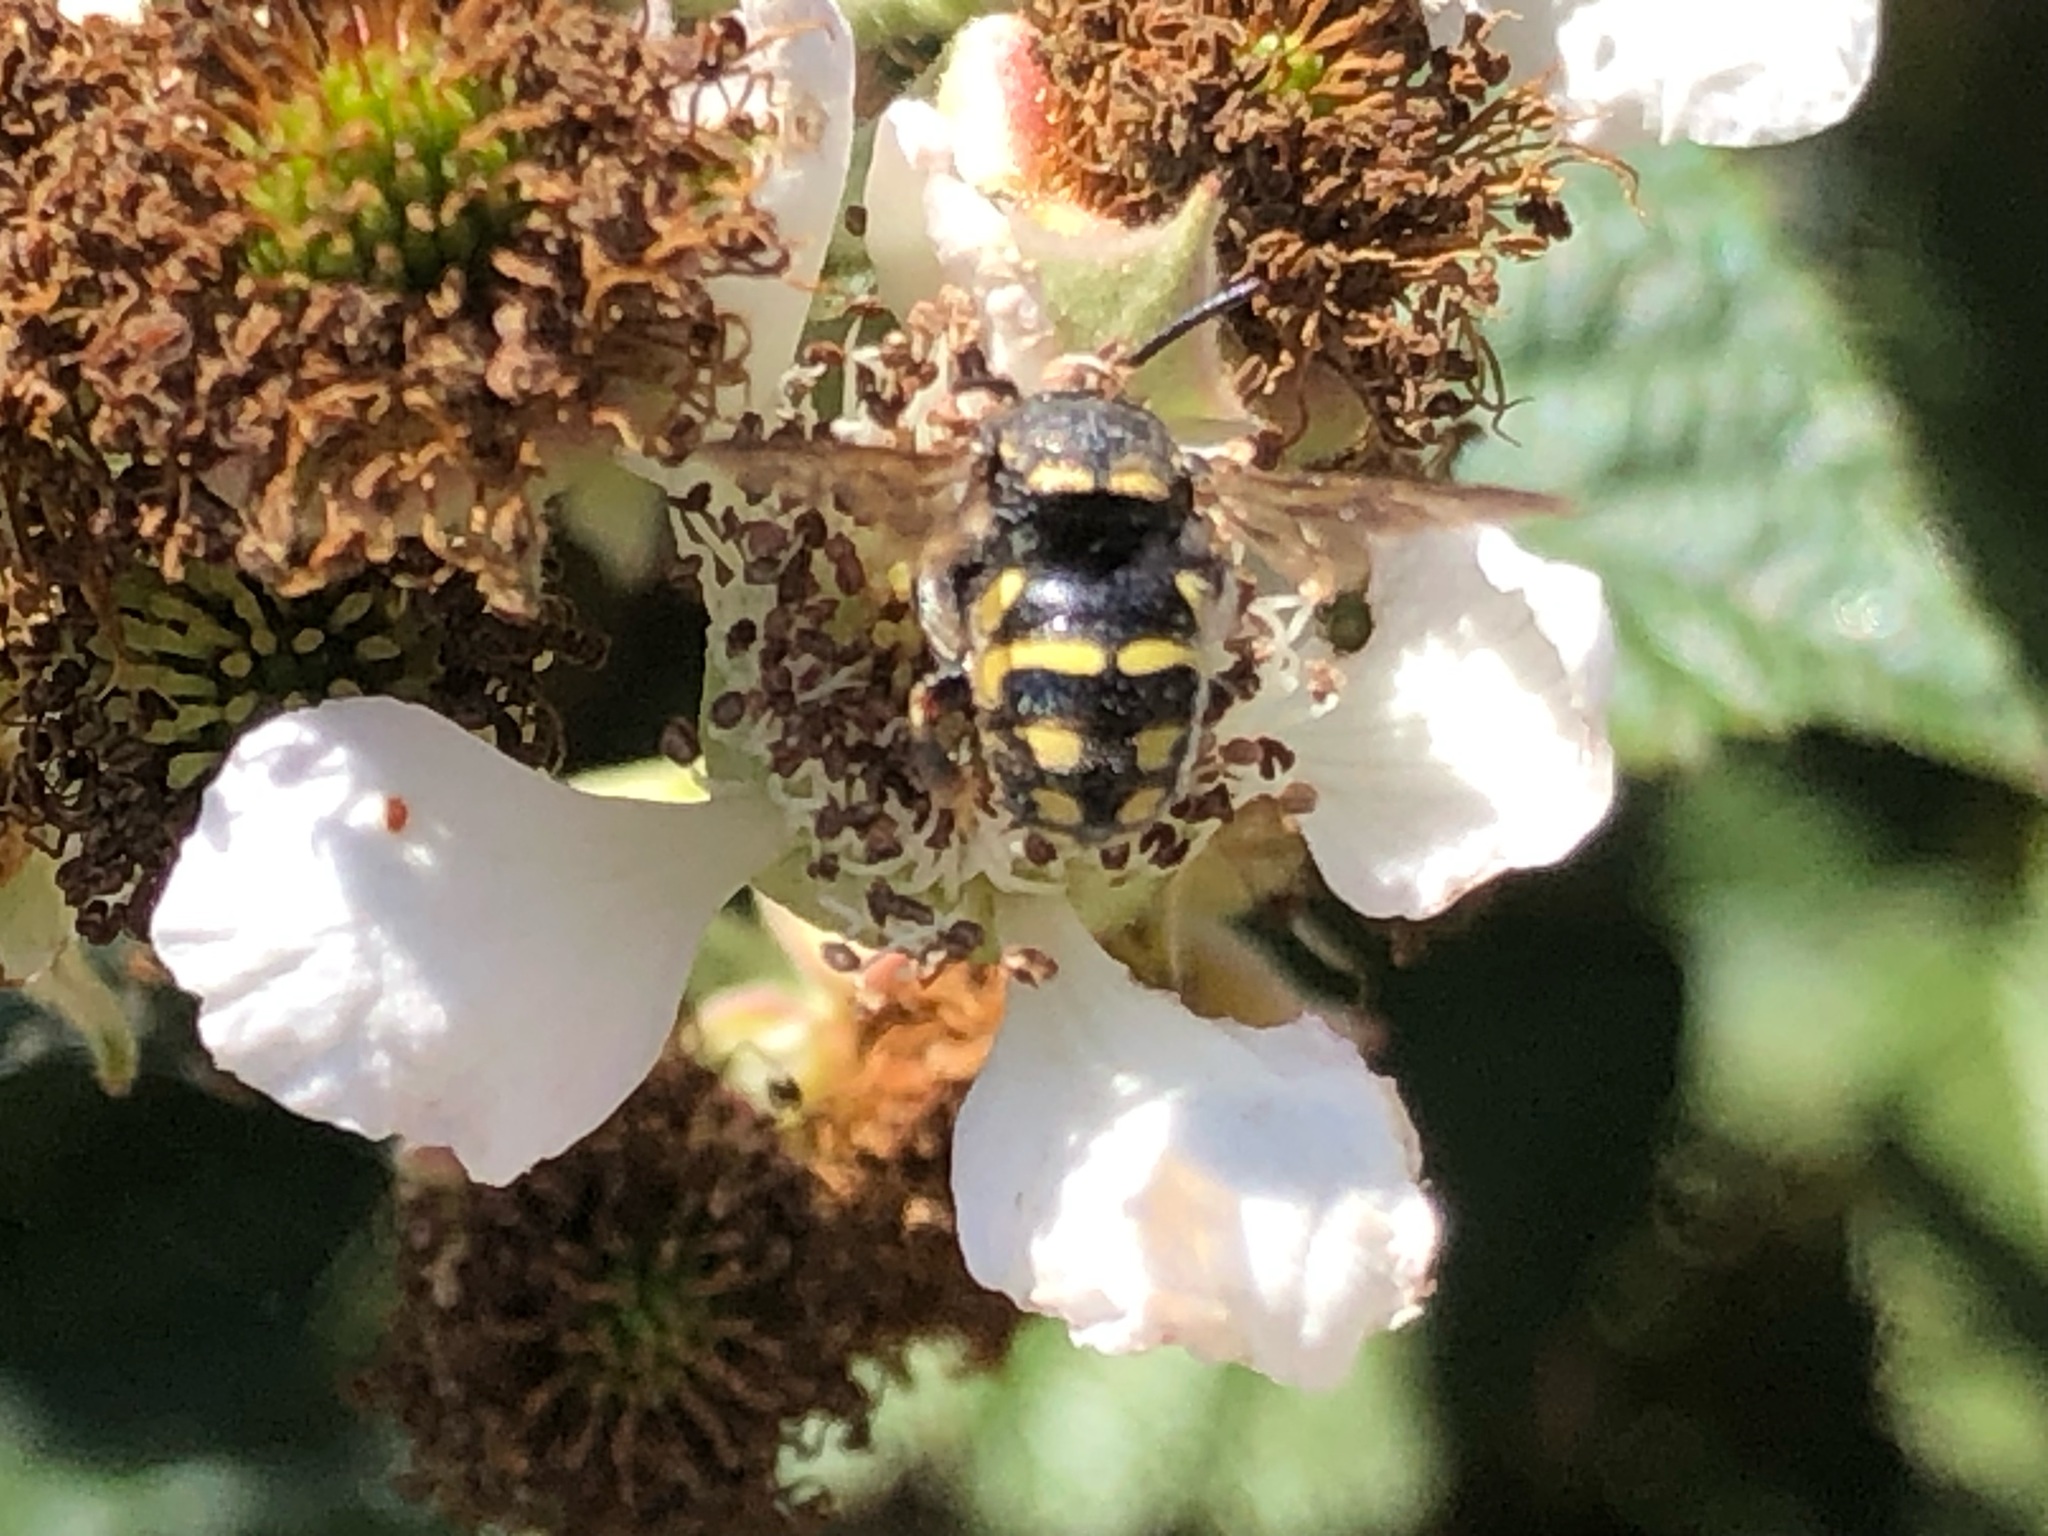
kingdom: Animalia
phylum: Arthropoda
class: Insecta
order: Hymenoptera
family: Megachilidae
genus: Anthidiellum
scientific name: Anthidiellum robertsoni
